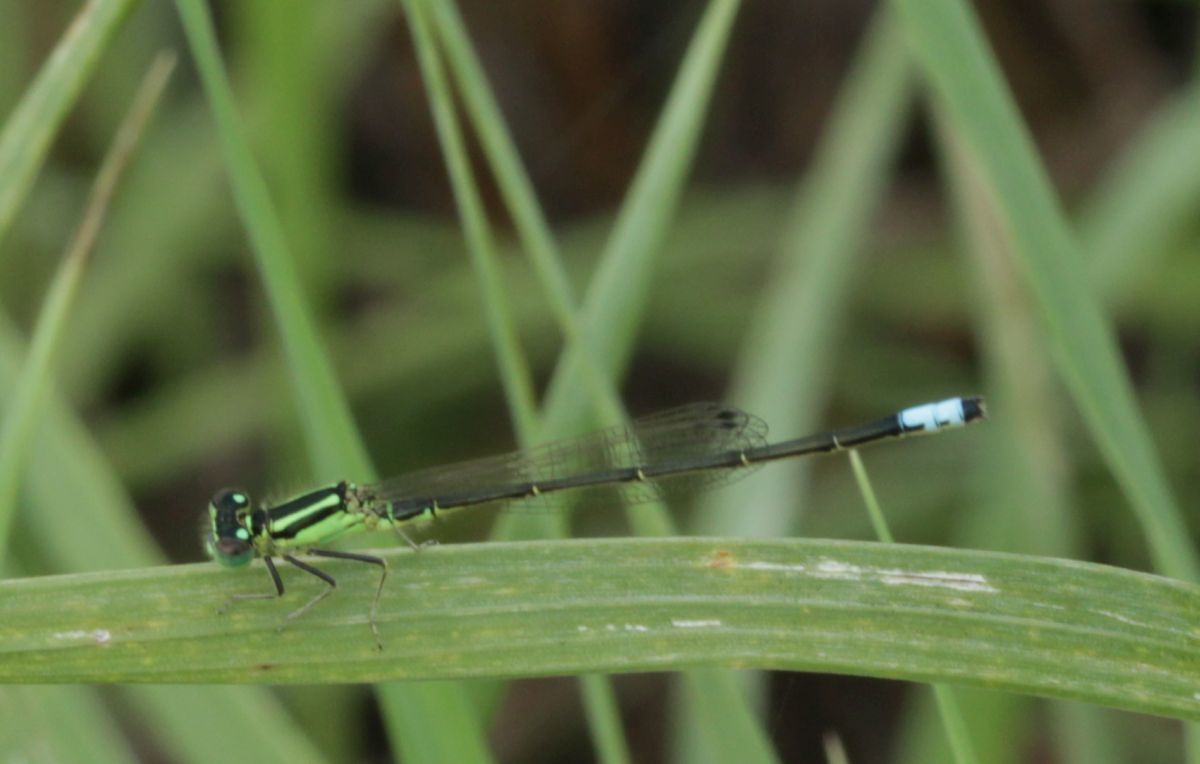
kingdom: Animalia
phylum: Arthropoda
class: Insecta
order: Odonata
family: Coenagrionidae
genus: Ischnura
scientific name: Ischnura verticalis
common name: Eastern forktail
